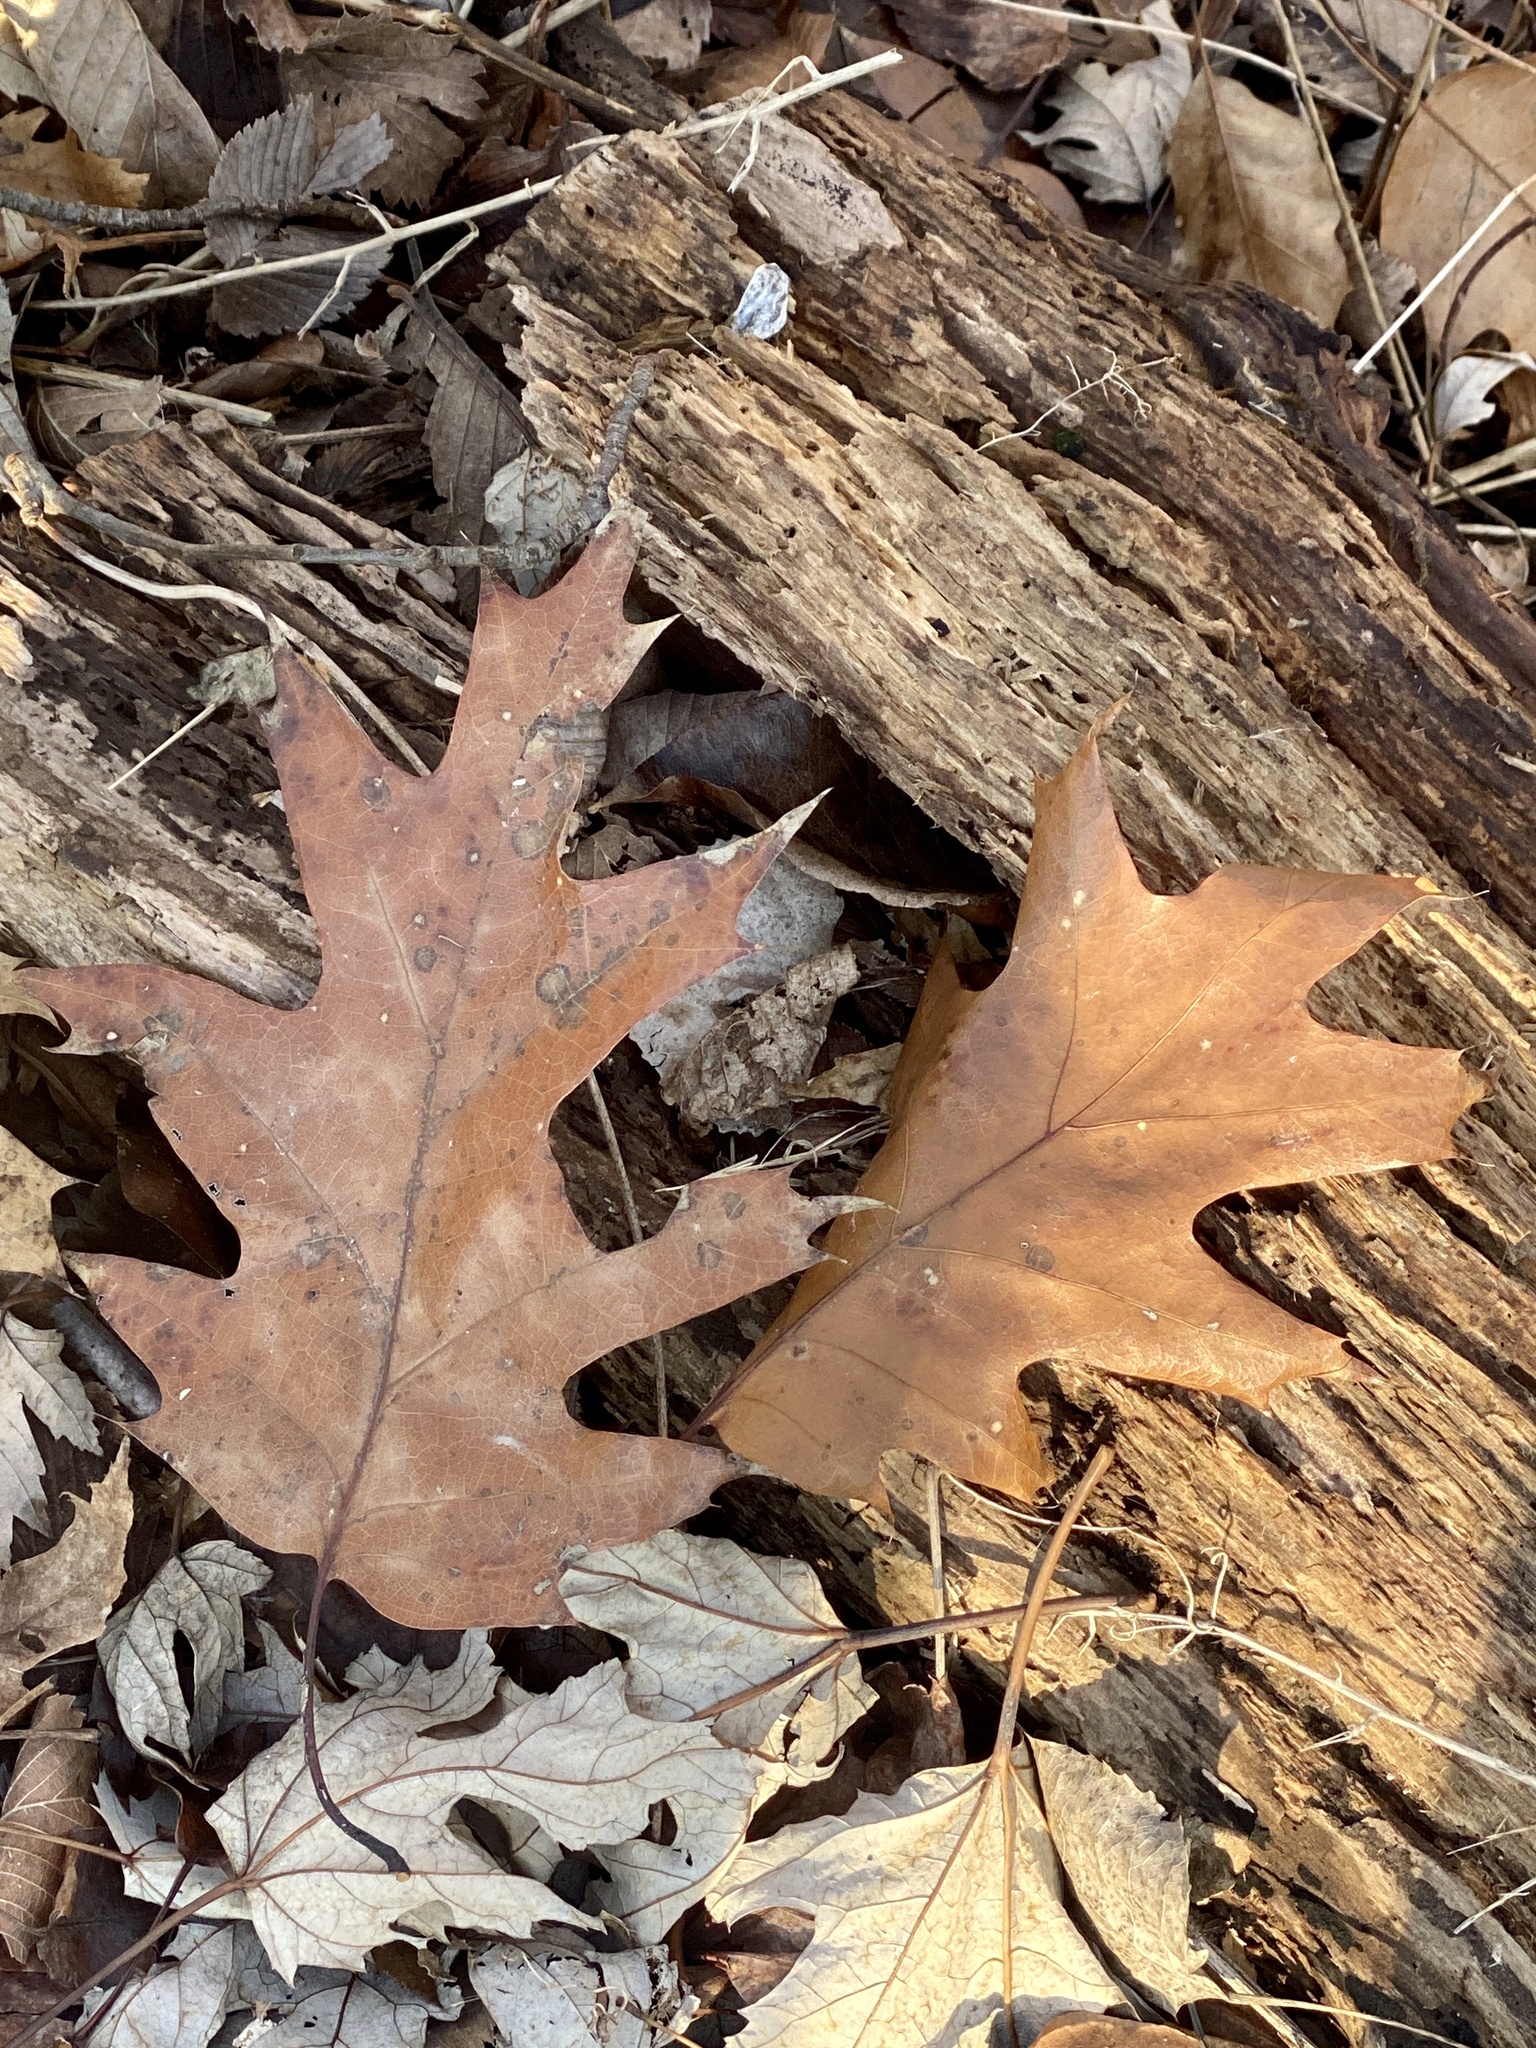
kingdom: Plantae
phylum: Tracheophyta
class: Magnoliopsida
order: Fagales
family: Fagaceae
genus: Quercus
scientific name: Quercus rubra
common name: Red oak
